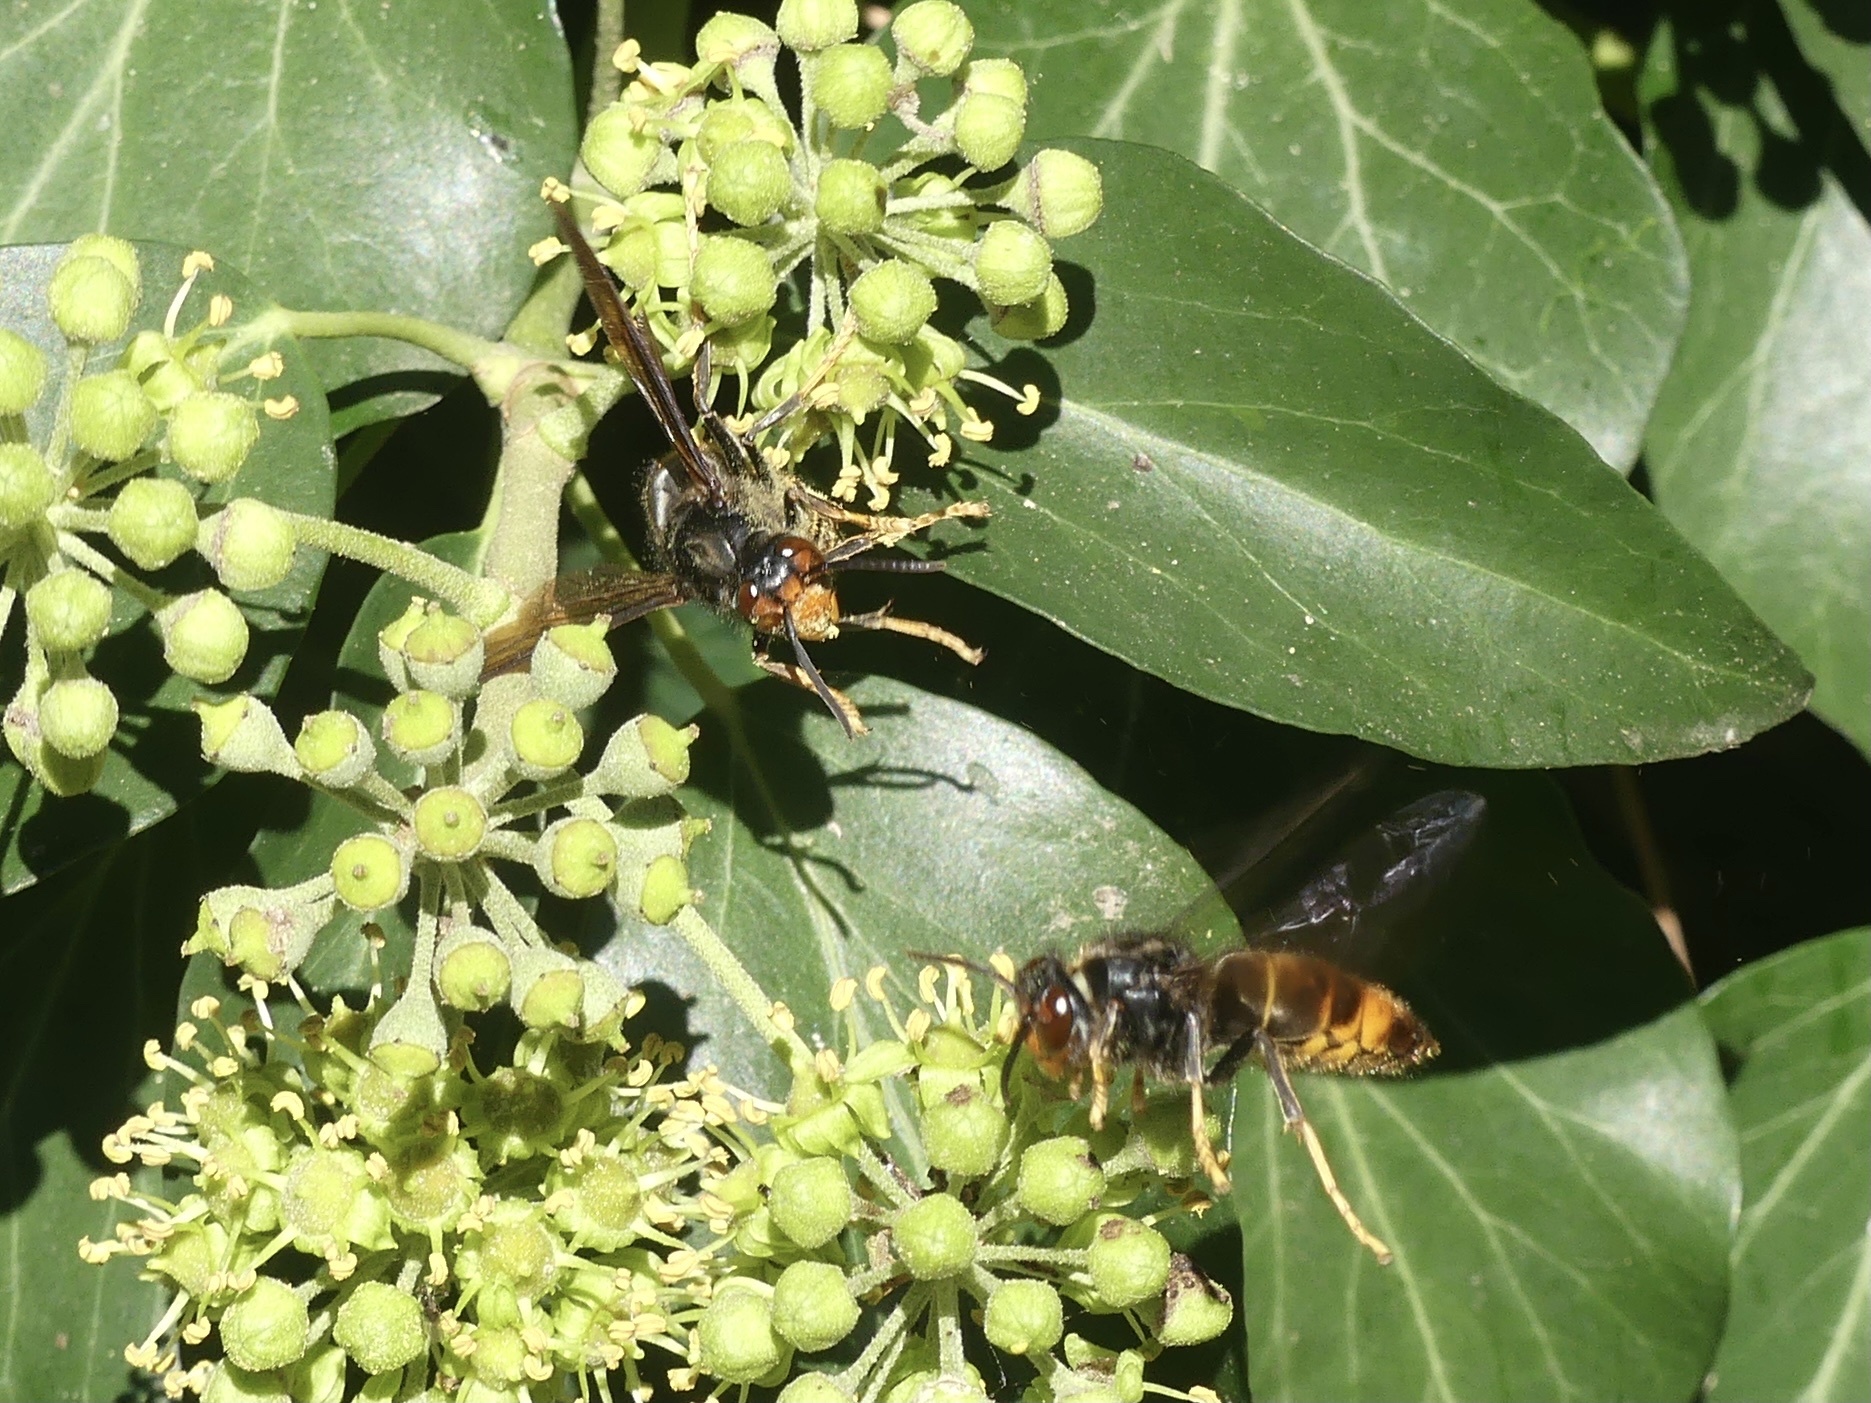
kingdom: Animalia
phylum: Arthropoda
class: Insecta
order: Hymenoptera
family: Vespidae
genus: Vespa
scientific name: Vespa velutina
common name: Asian hornet
